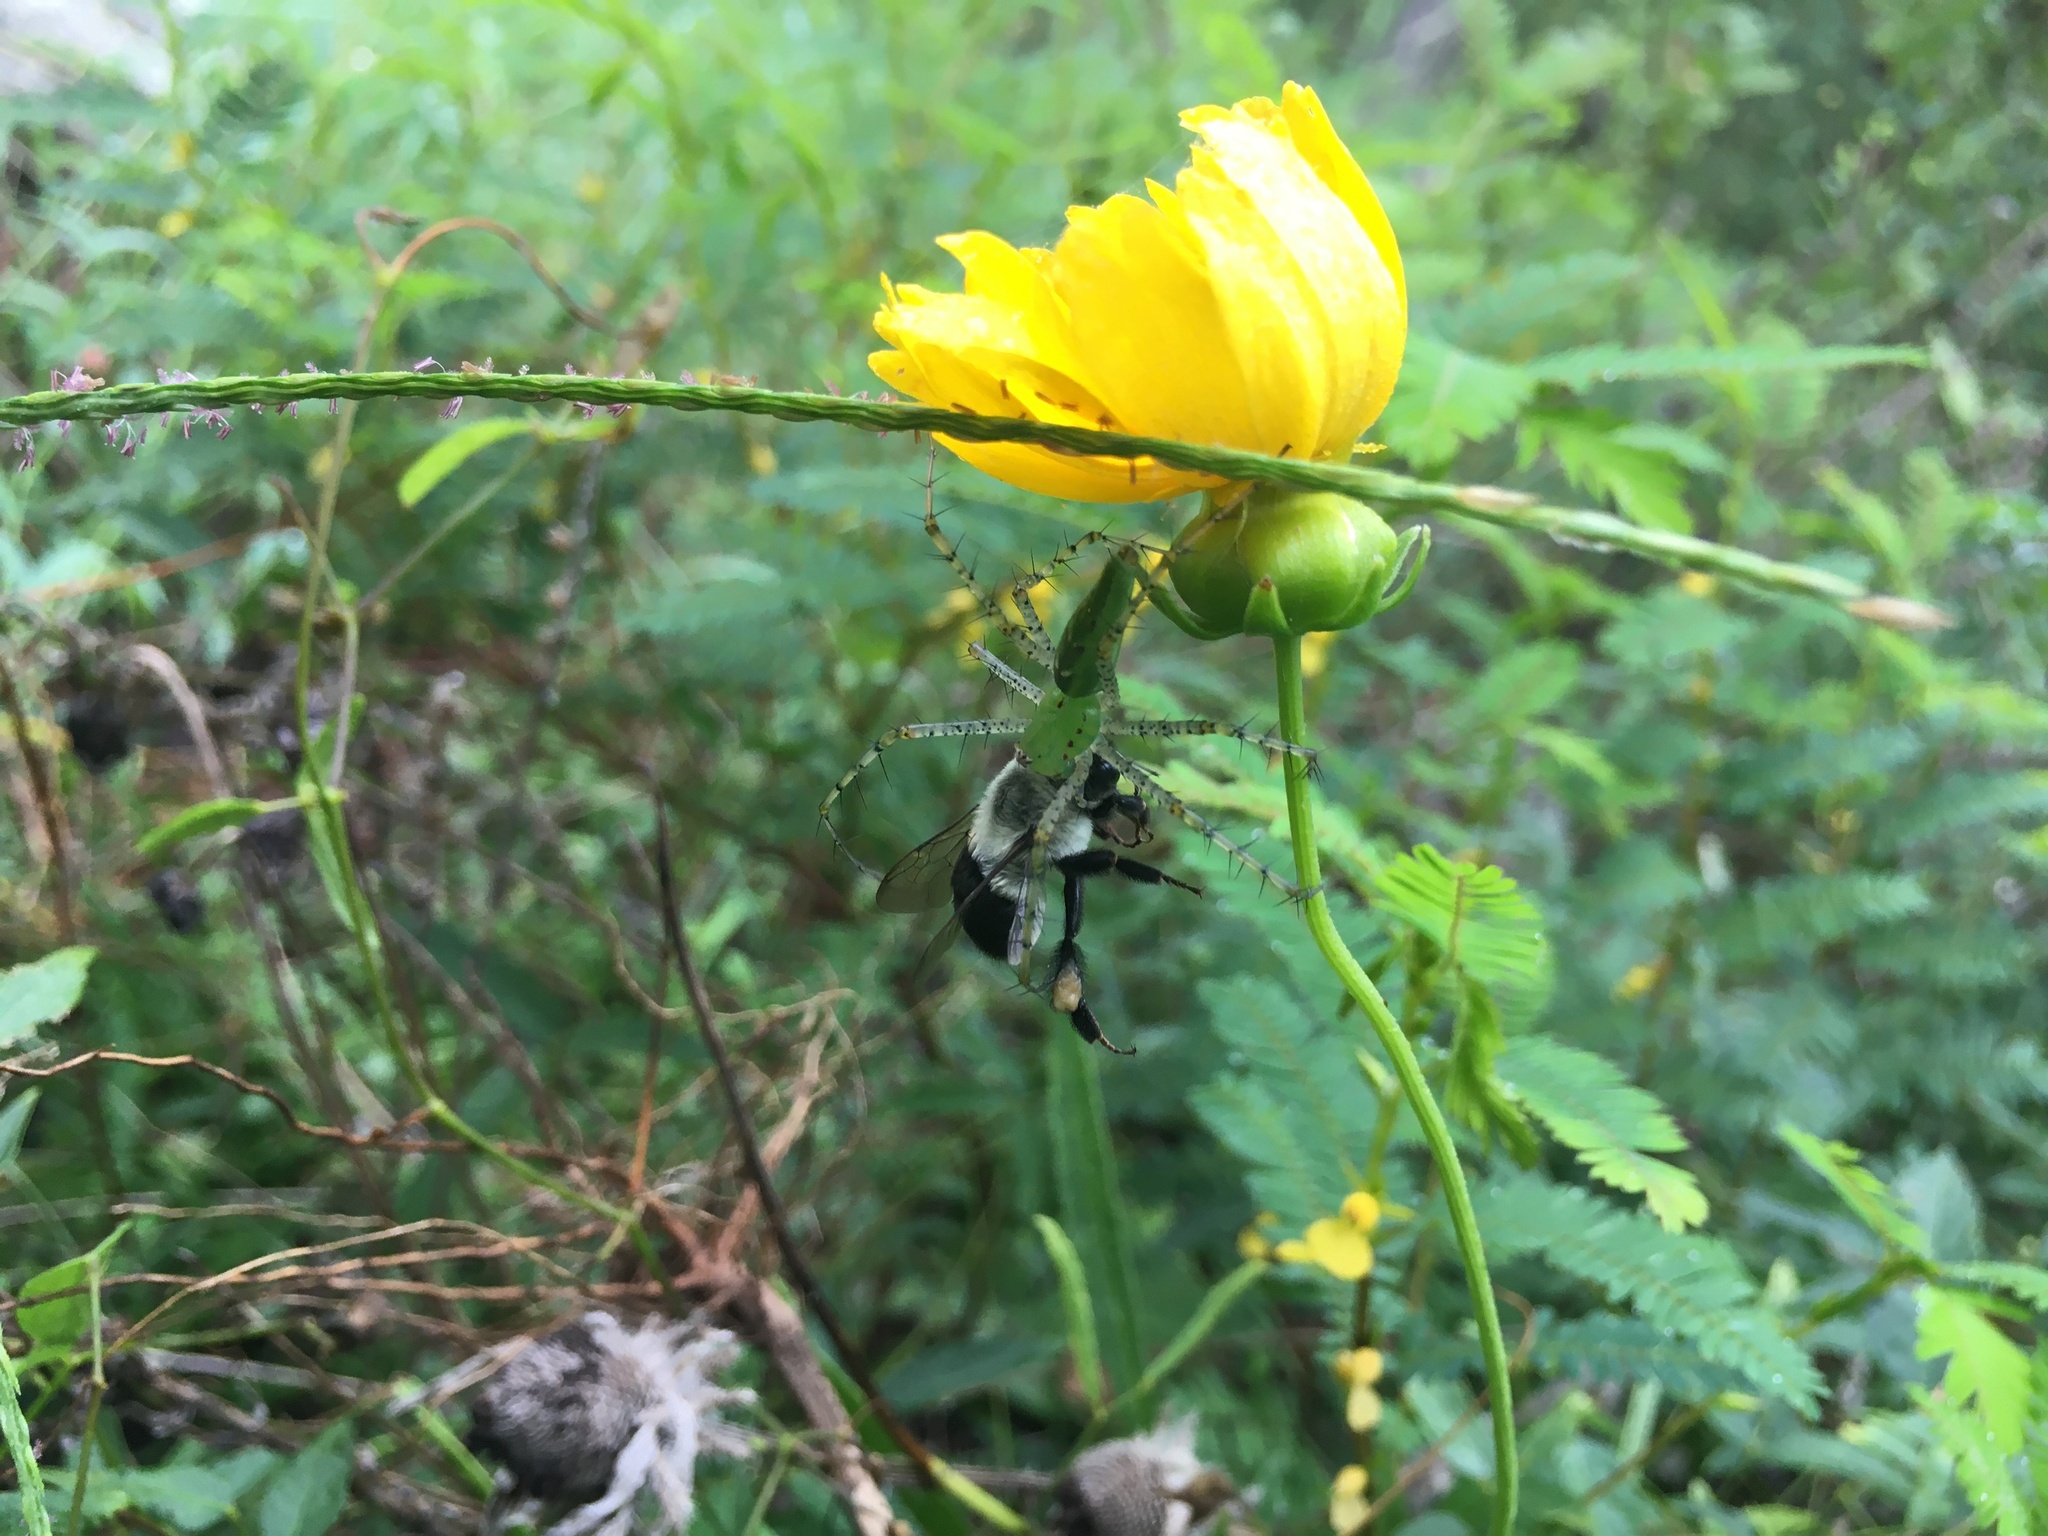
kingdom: Animalia
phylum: Arthropoda
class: Arachnida
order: Araneae
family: Oxyopidae
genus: Peucetia
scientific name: Peucetia viridans
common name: Lynx spiders
